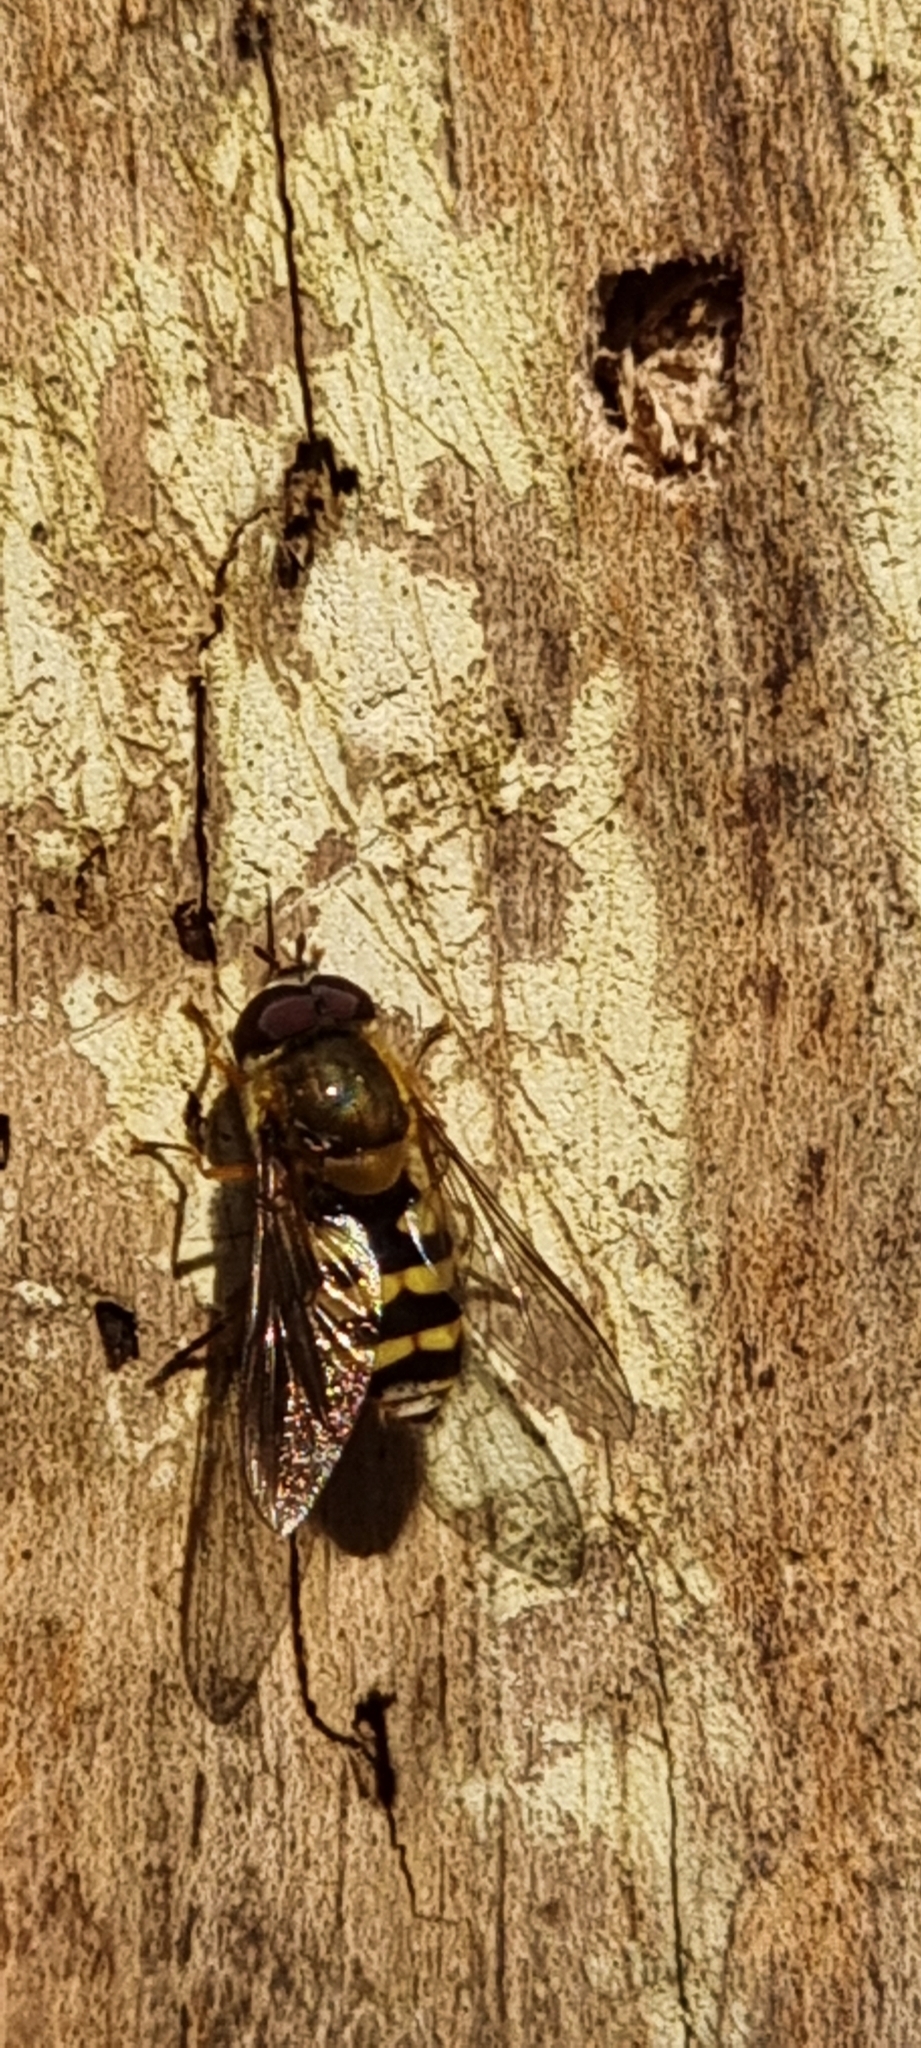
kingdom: Animalia
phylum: Arthropoda
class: Insecta
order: Diptera
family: Syrphidae
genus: Syrphus
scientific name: Syrphus ribesii
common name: Common flower fly
